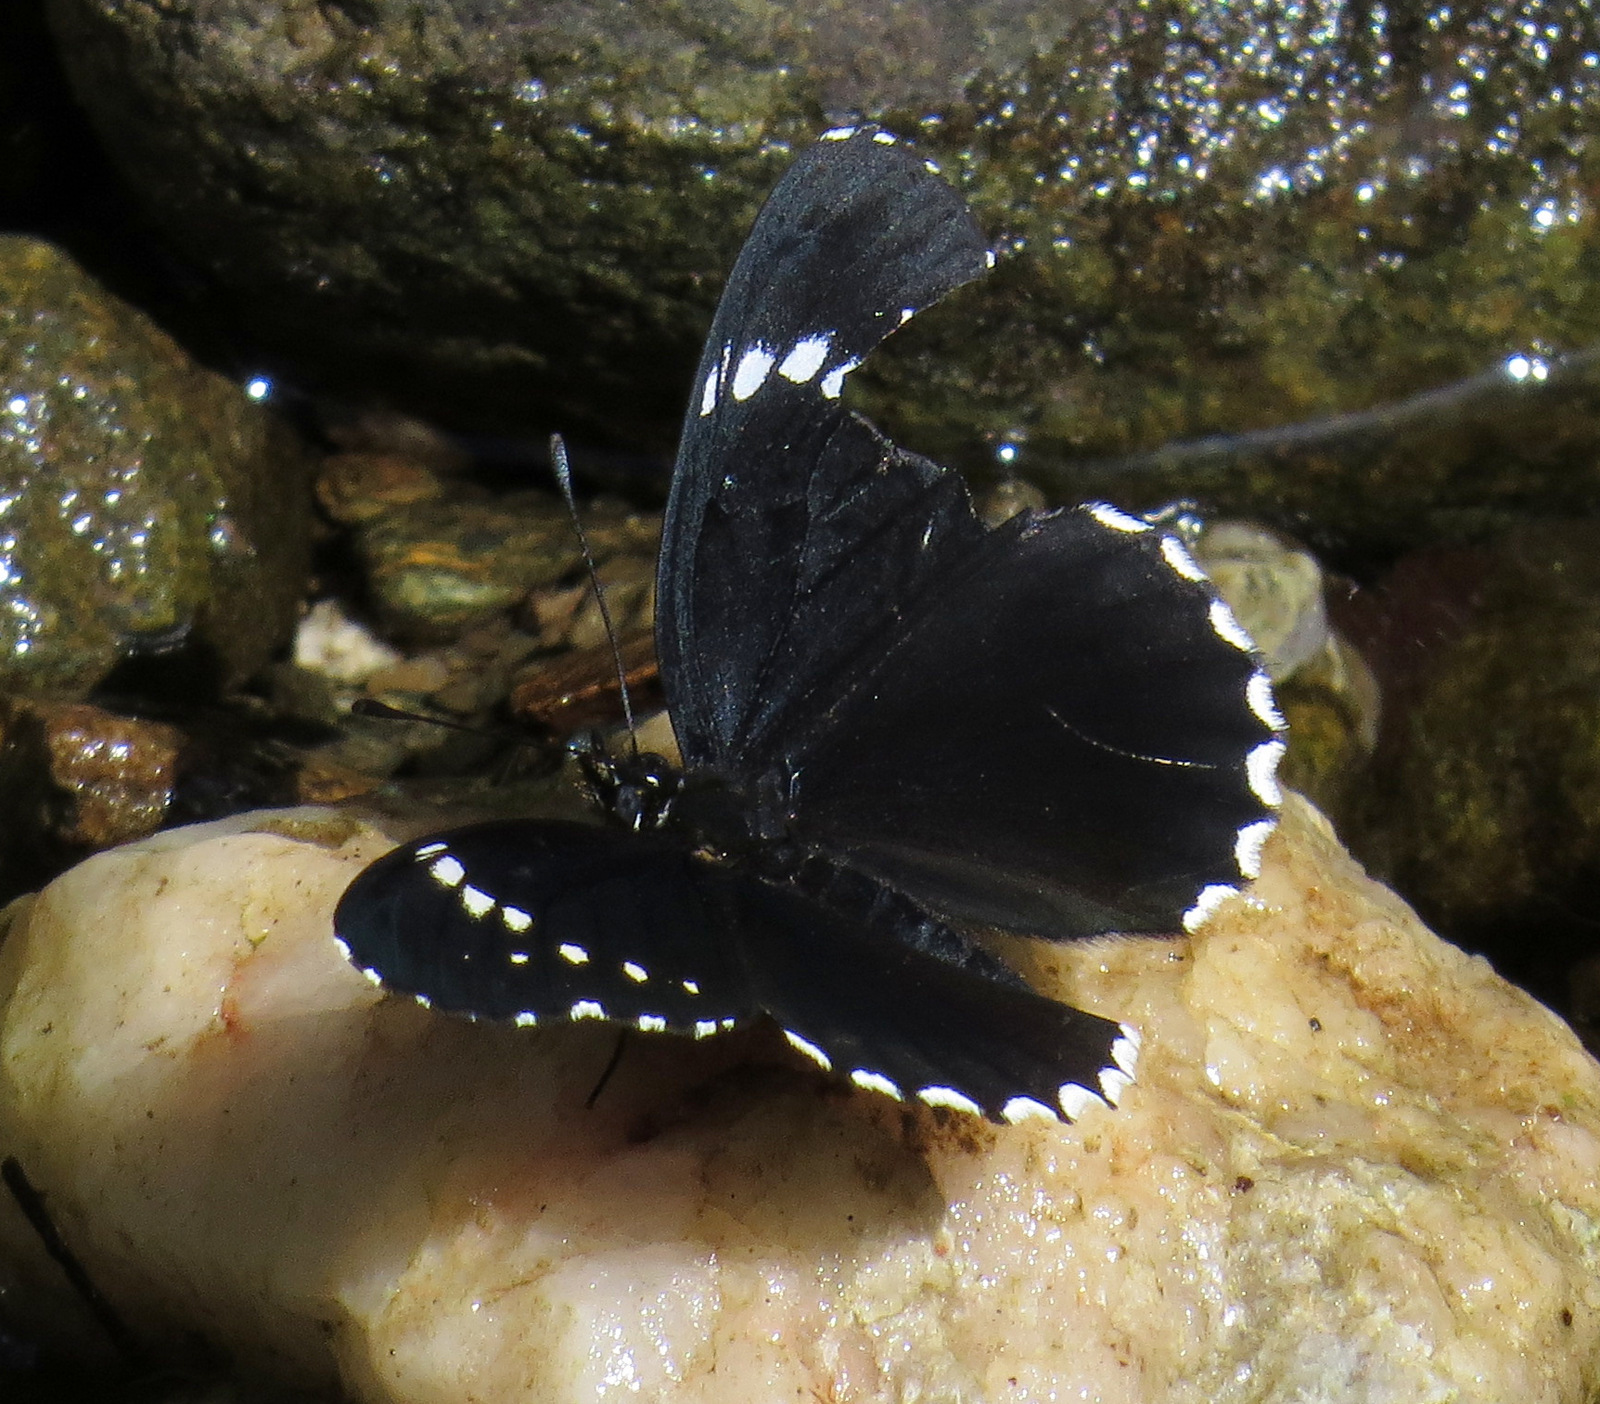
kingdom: Animalia
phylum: Arthropoda
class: Insecta
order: Lepidoptera
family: Nymphalidae
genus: Chlosyne
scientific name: Chlosyne hippodrome
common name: Simple patch
